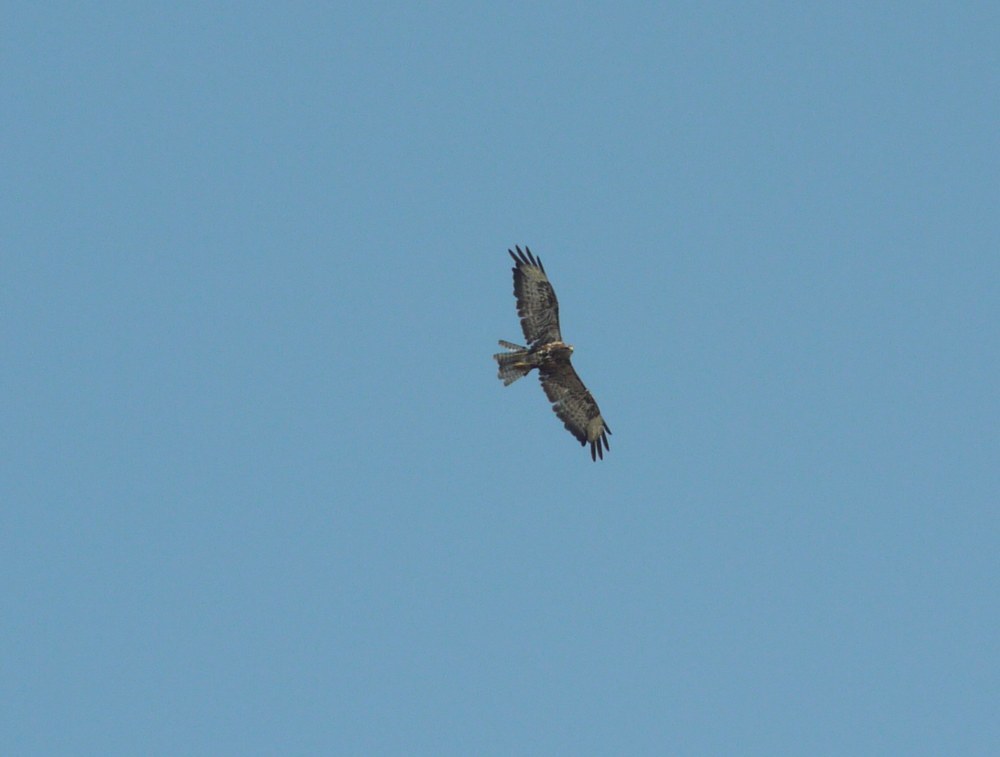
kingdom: Animalia
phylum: Chordata
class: Aves
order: Accipitriformes
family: Accipitridae
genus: Buteo
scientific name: Buteo buteo
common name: Common buzzard
